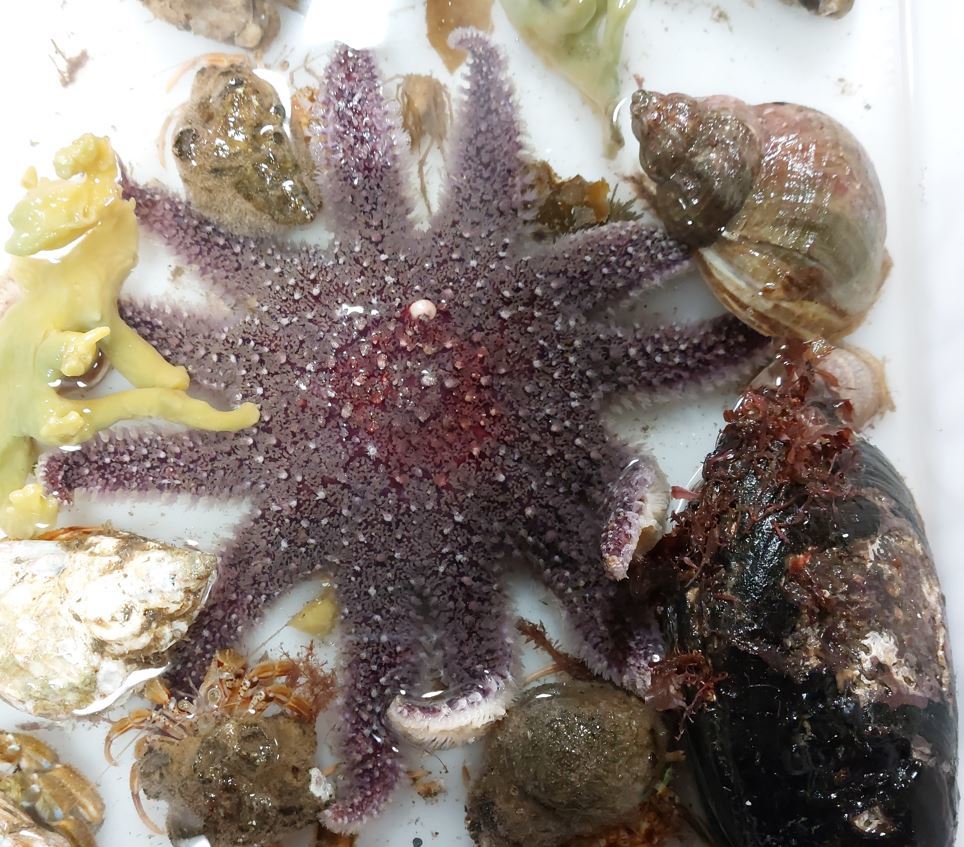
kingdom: Animalia
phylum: Echinodermata
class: Asteroidea
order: Valvatida
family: Solasteridae
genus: Crossaster
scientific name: Crossaster papposus
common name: Common sun star
